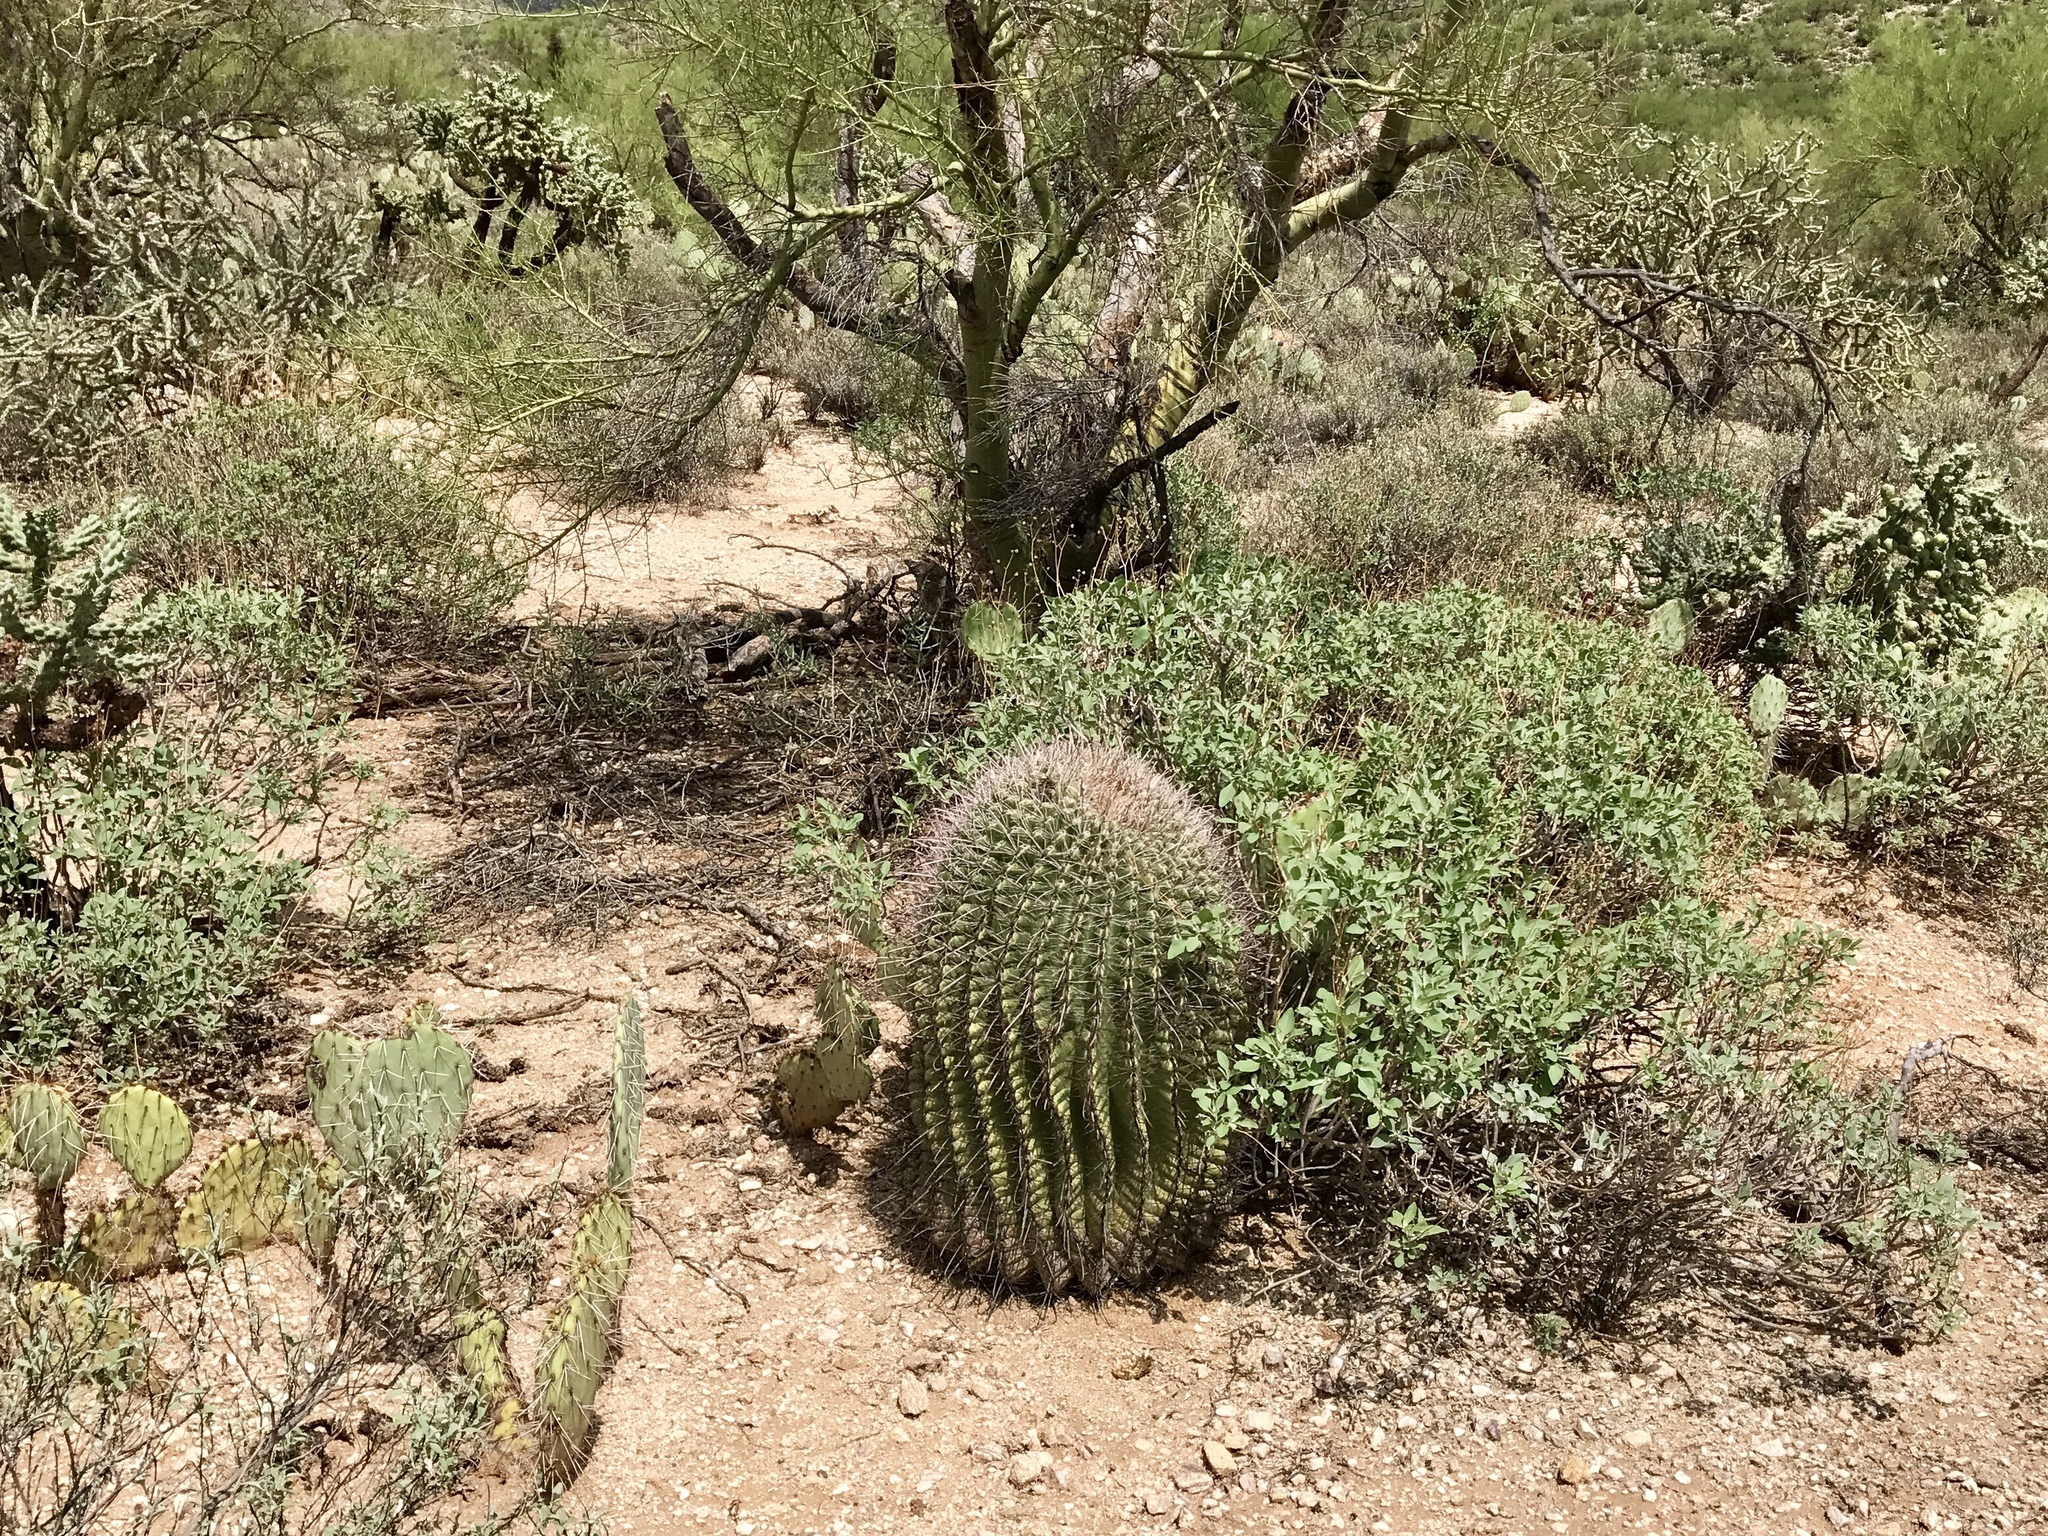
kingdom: Plantae
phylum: Tracheophyta
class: Magnoliopsida
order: Caryophyllales
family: Cactaceae
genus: Ferocactus
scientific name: Ferocactus wislizeni
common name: Candy barrel cactus
